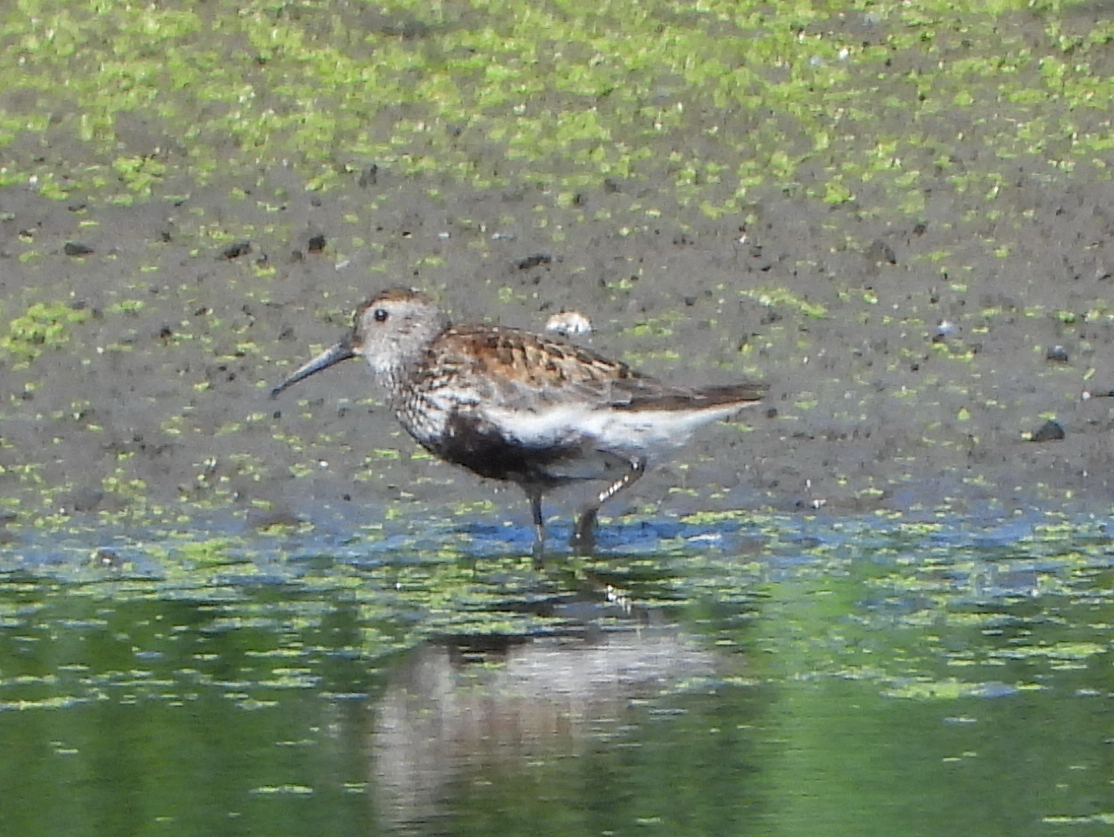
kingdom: Animalia
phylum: Chordata
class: Aves
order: Charadriiformes
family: Scolopacidae
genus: Calidris
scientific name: Calidris alpina
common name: Dunlin
